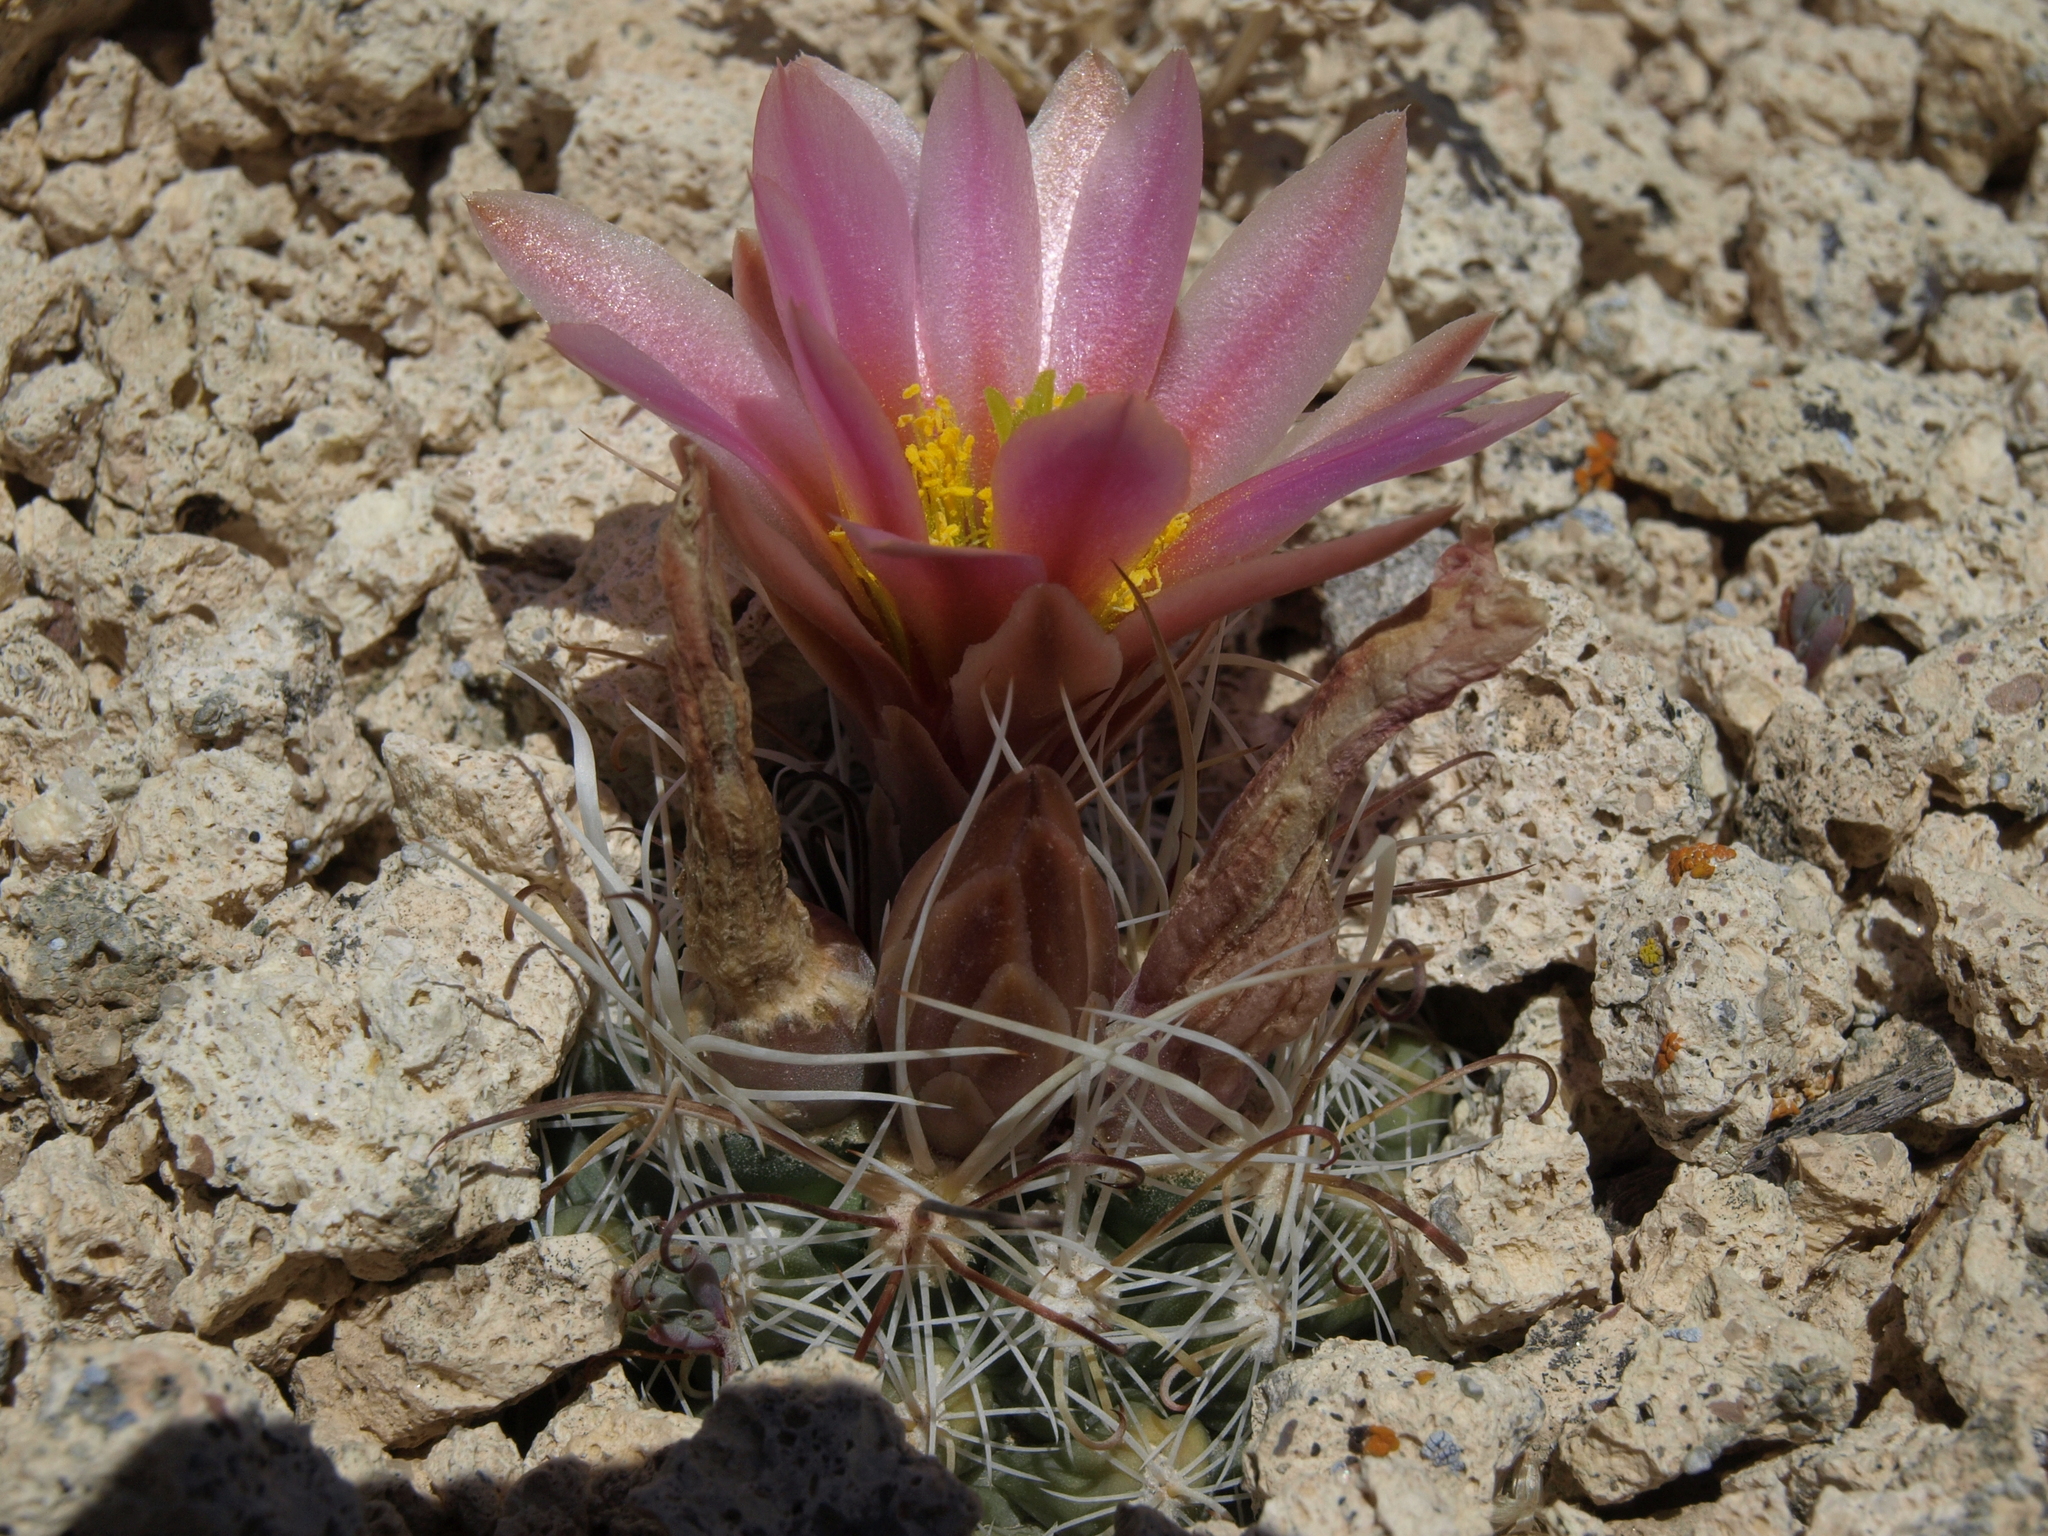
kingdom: Plantae
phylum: Tracheophyta
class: Magnoliopsida
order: Caryophyllales
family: Cactaceae
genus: Sclerocactus
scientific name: Sclerocactus nyensis
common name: Nye county fish-hook cactus
